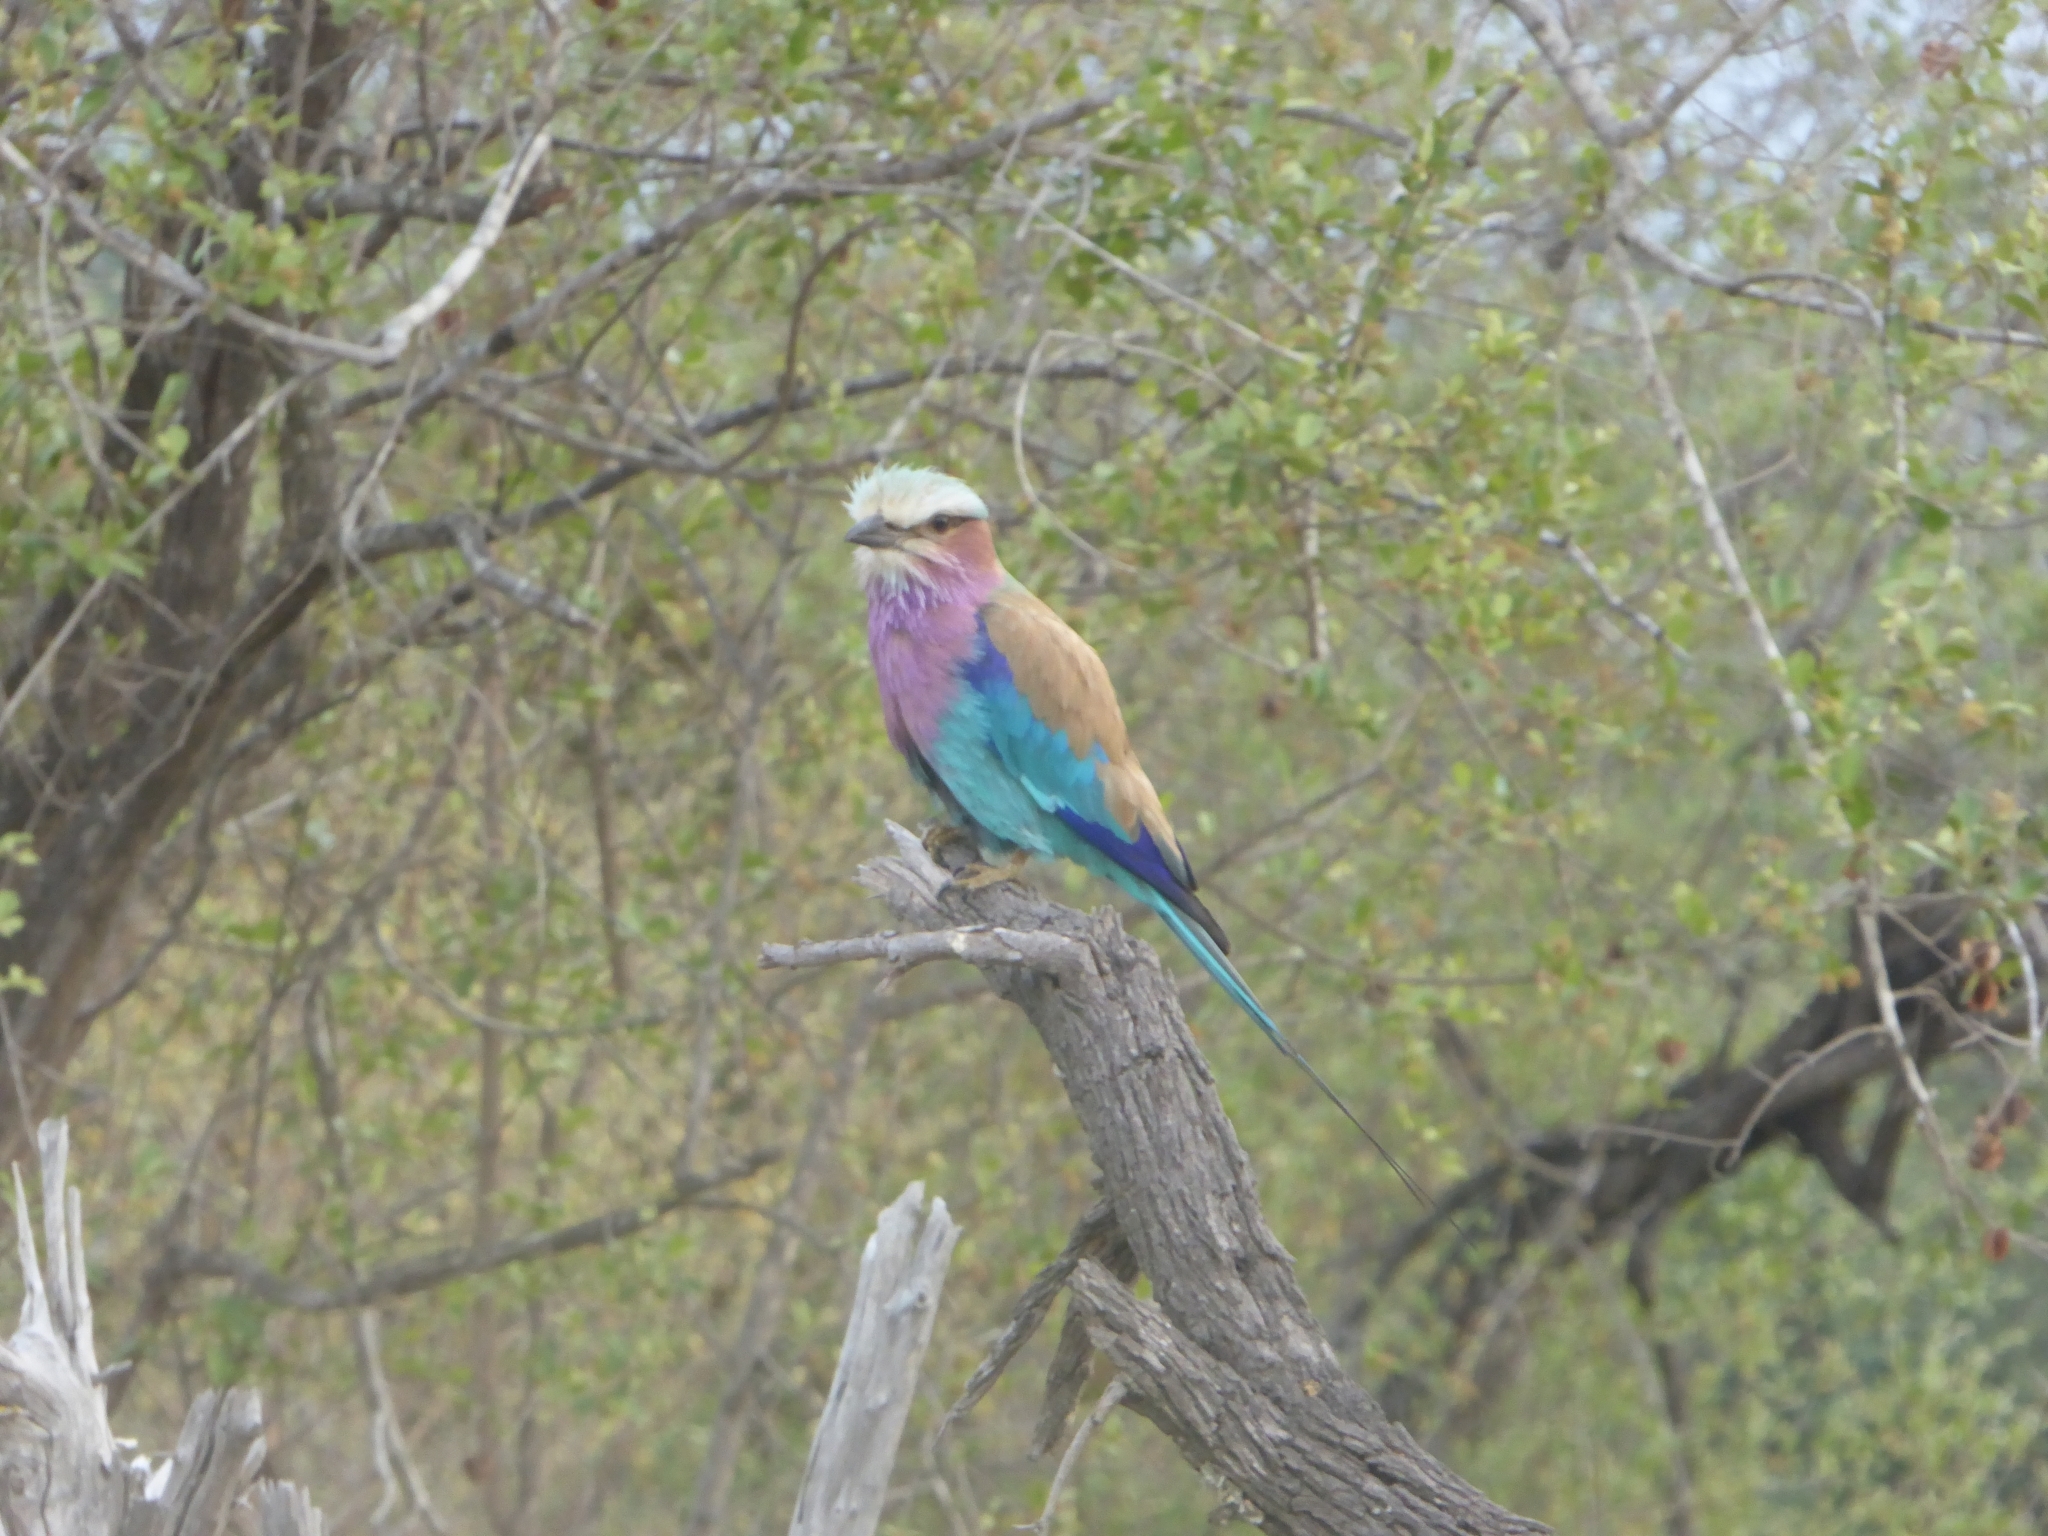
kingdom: Animalia
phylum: Chordata
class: Aves
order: Coraciiformes
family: Coraciidae
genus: Coracias
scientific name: Coracias caudatus
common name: Lilac-breasted roller
